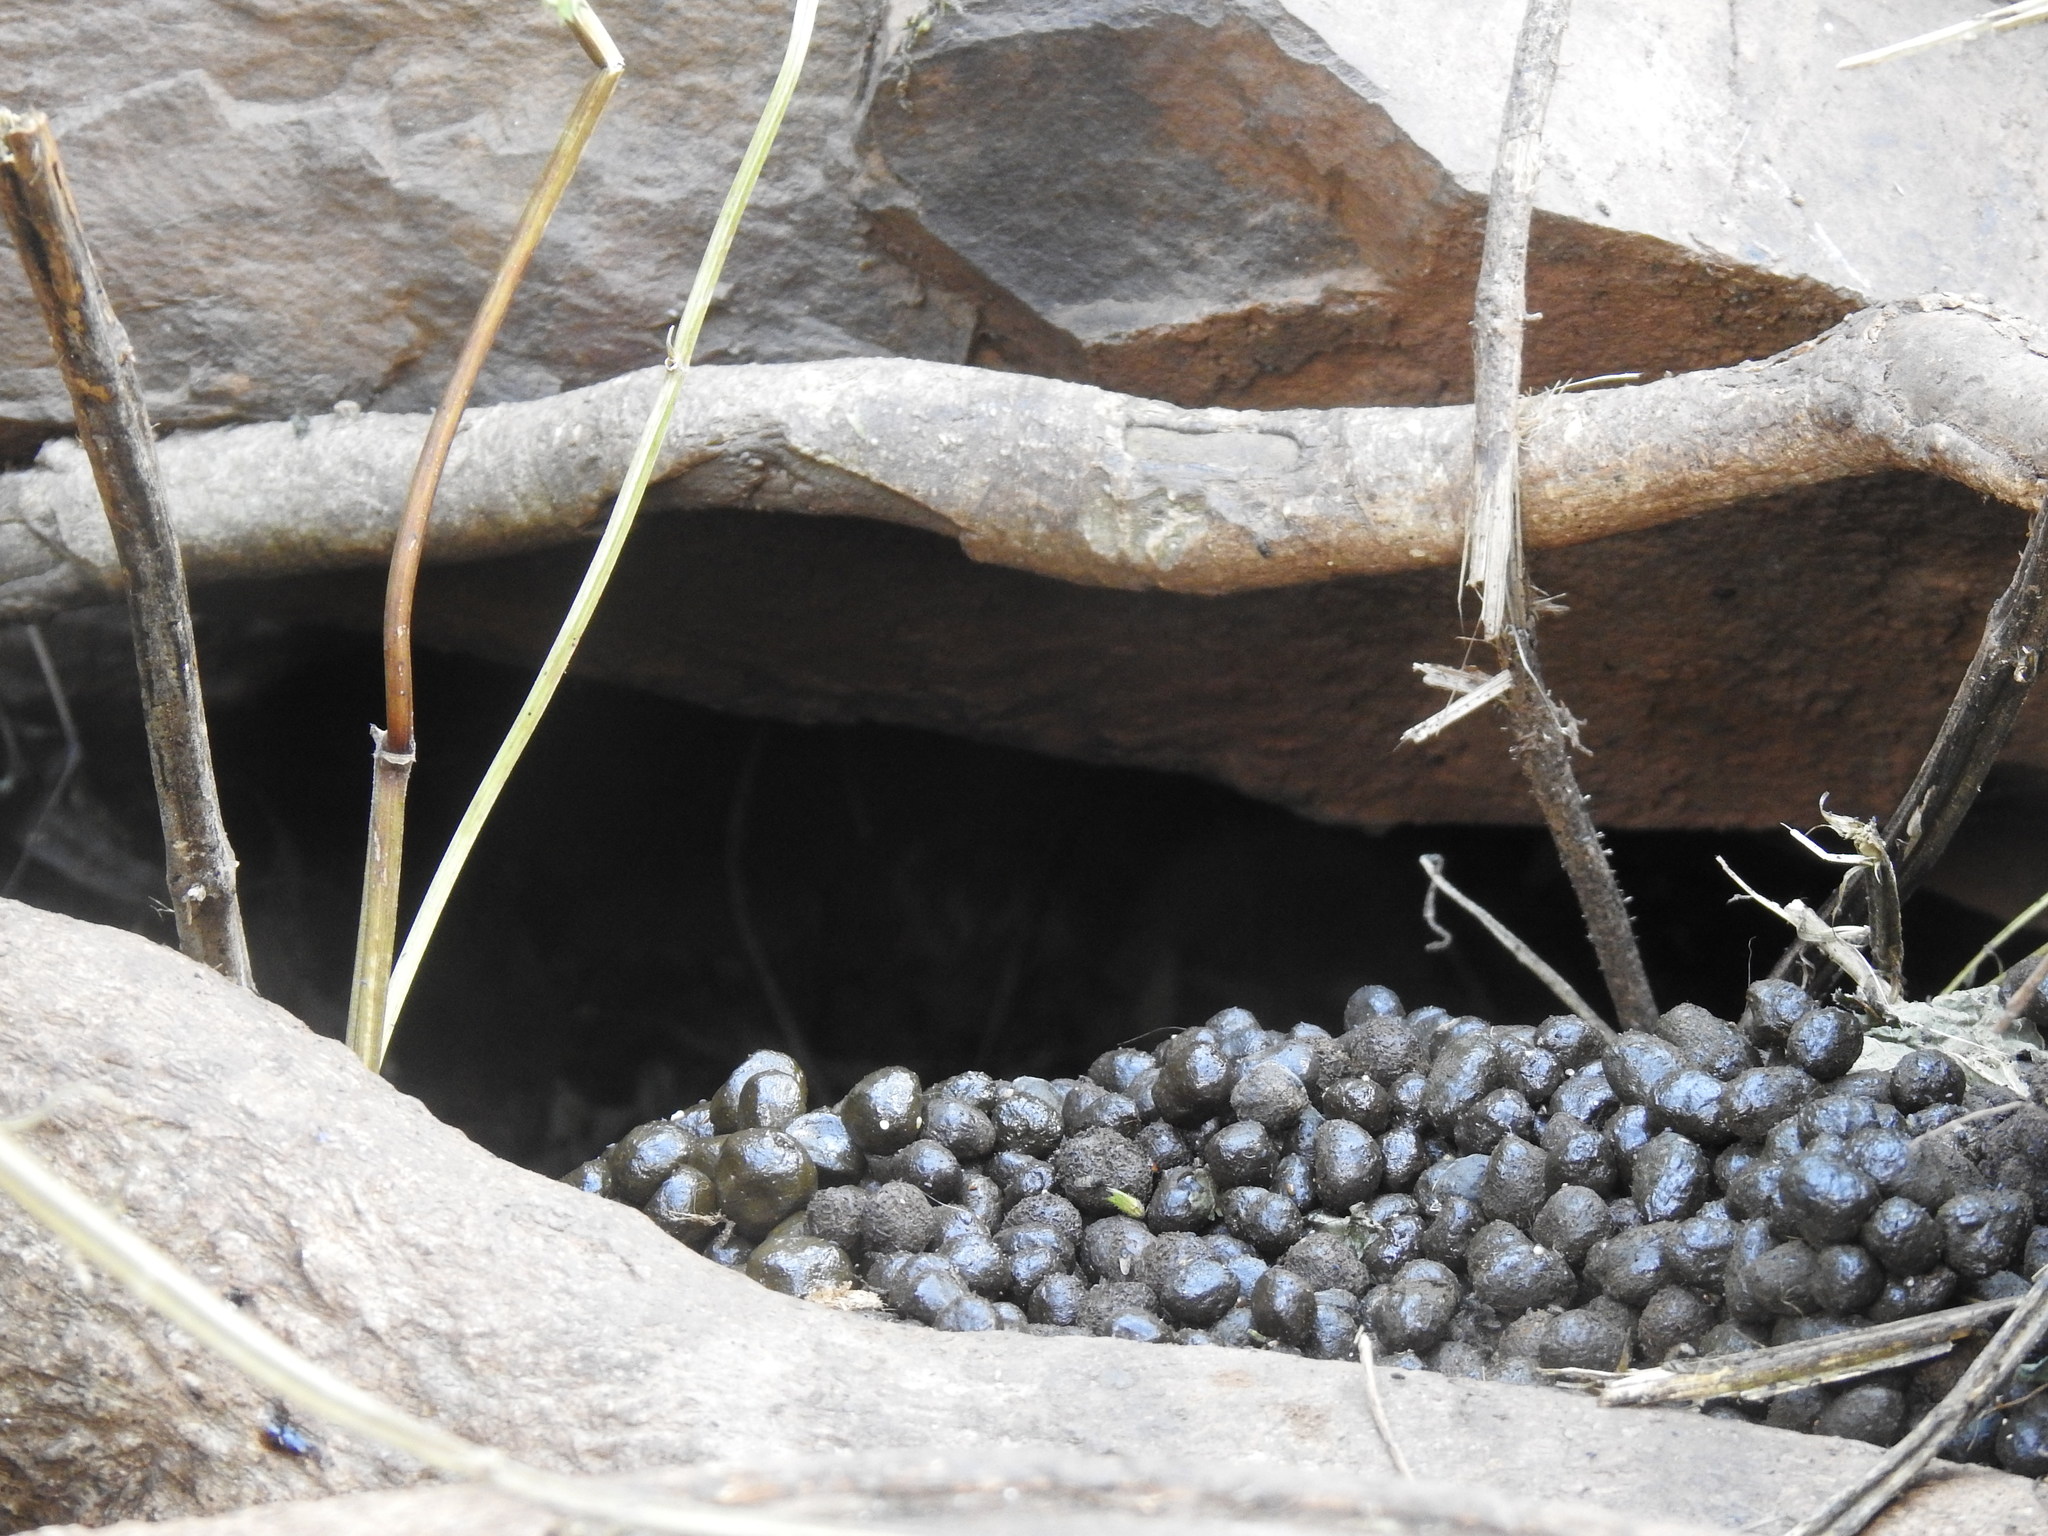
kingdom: Animalia
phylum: Chordata
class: Mammalia
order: Hyracoidea
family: Procaviidae
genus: Procavia
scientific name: Procavia capensis
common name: Rock hyrax
